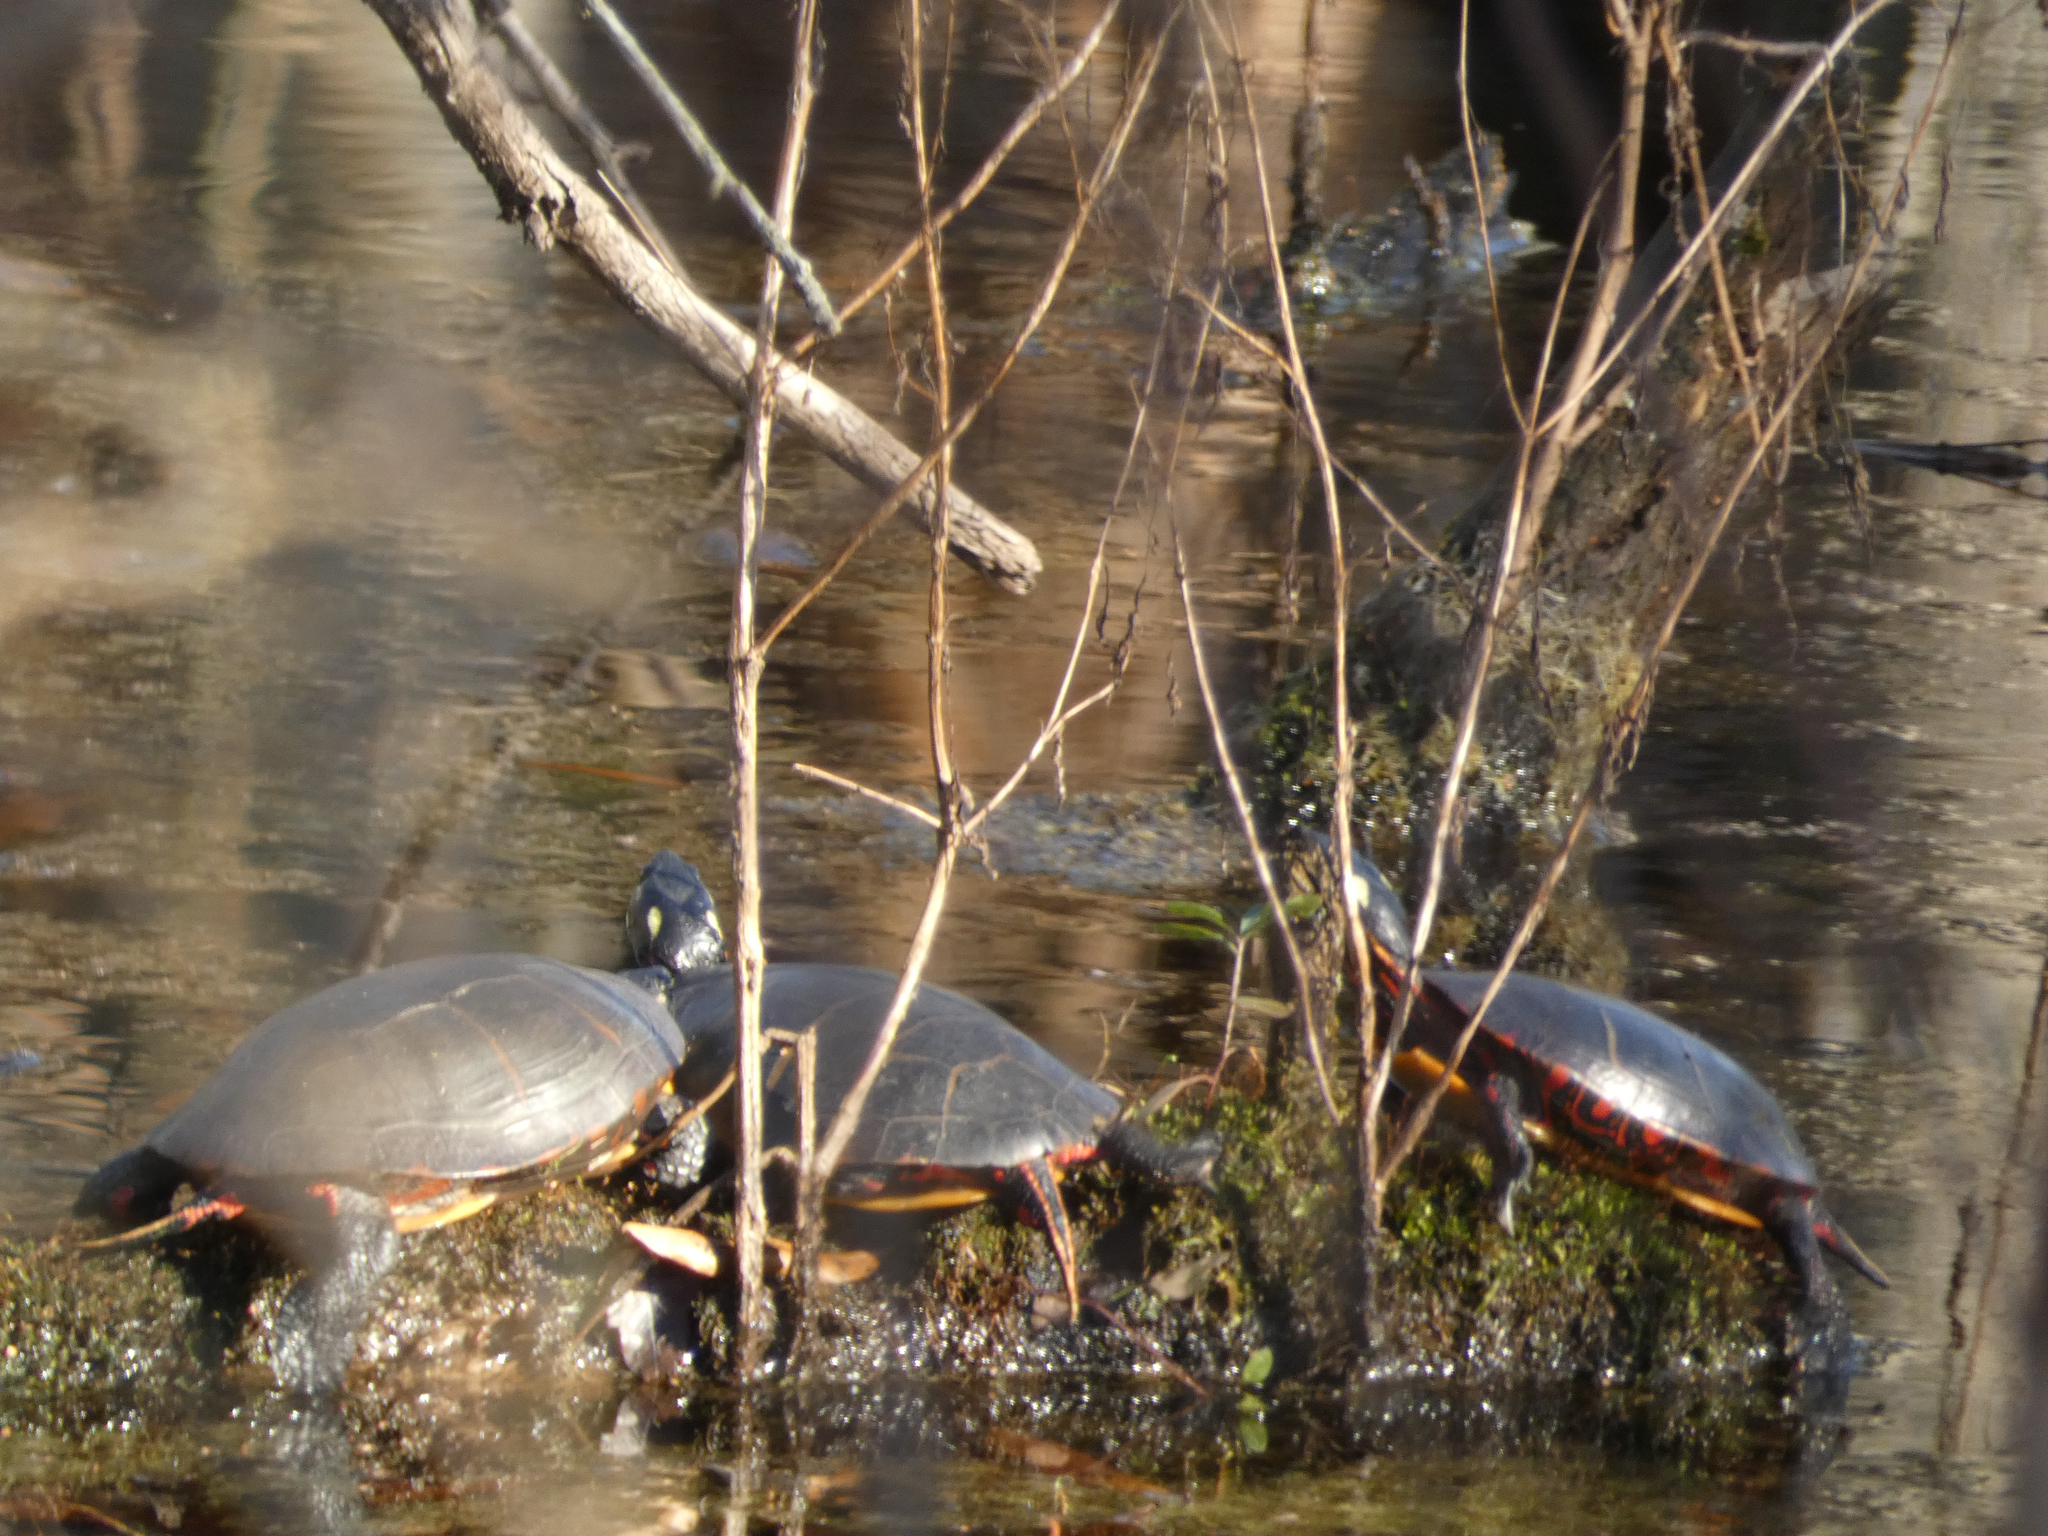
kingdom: Animalia
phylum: Chordata
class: Testudines
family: Emydidae
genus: Chrysemys
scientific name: Chrysemys picta
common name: Painted turtle
